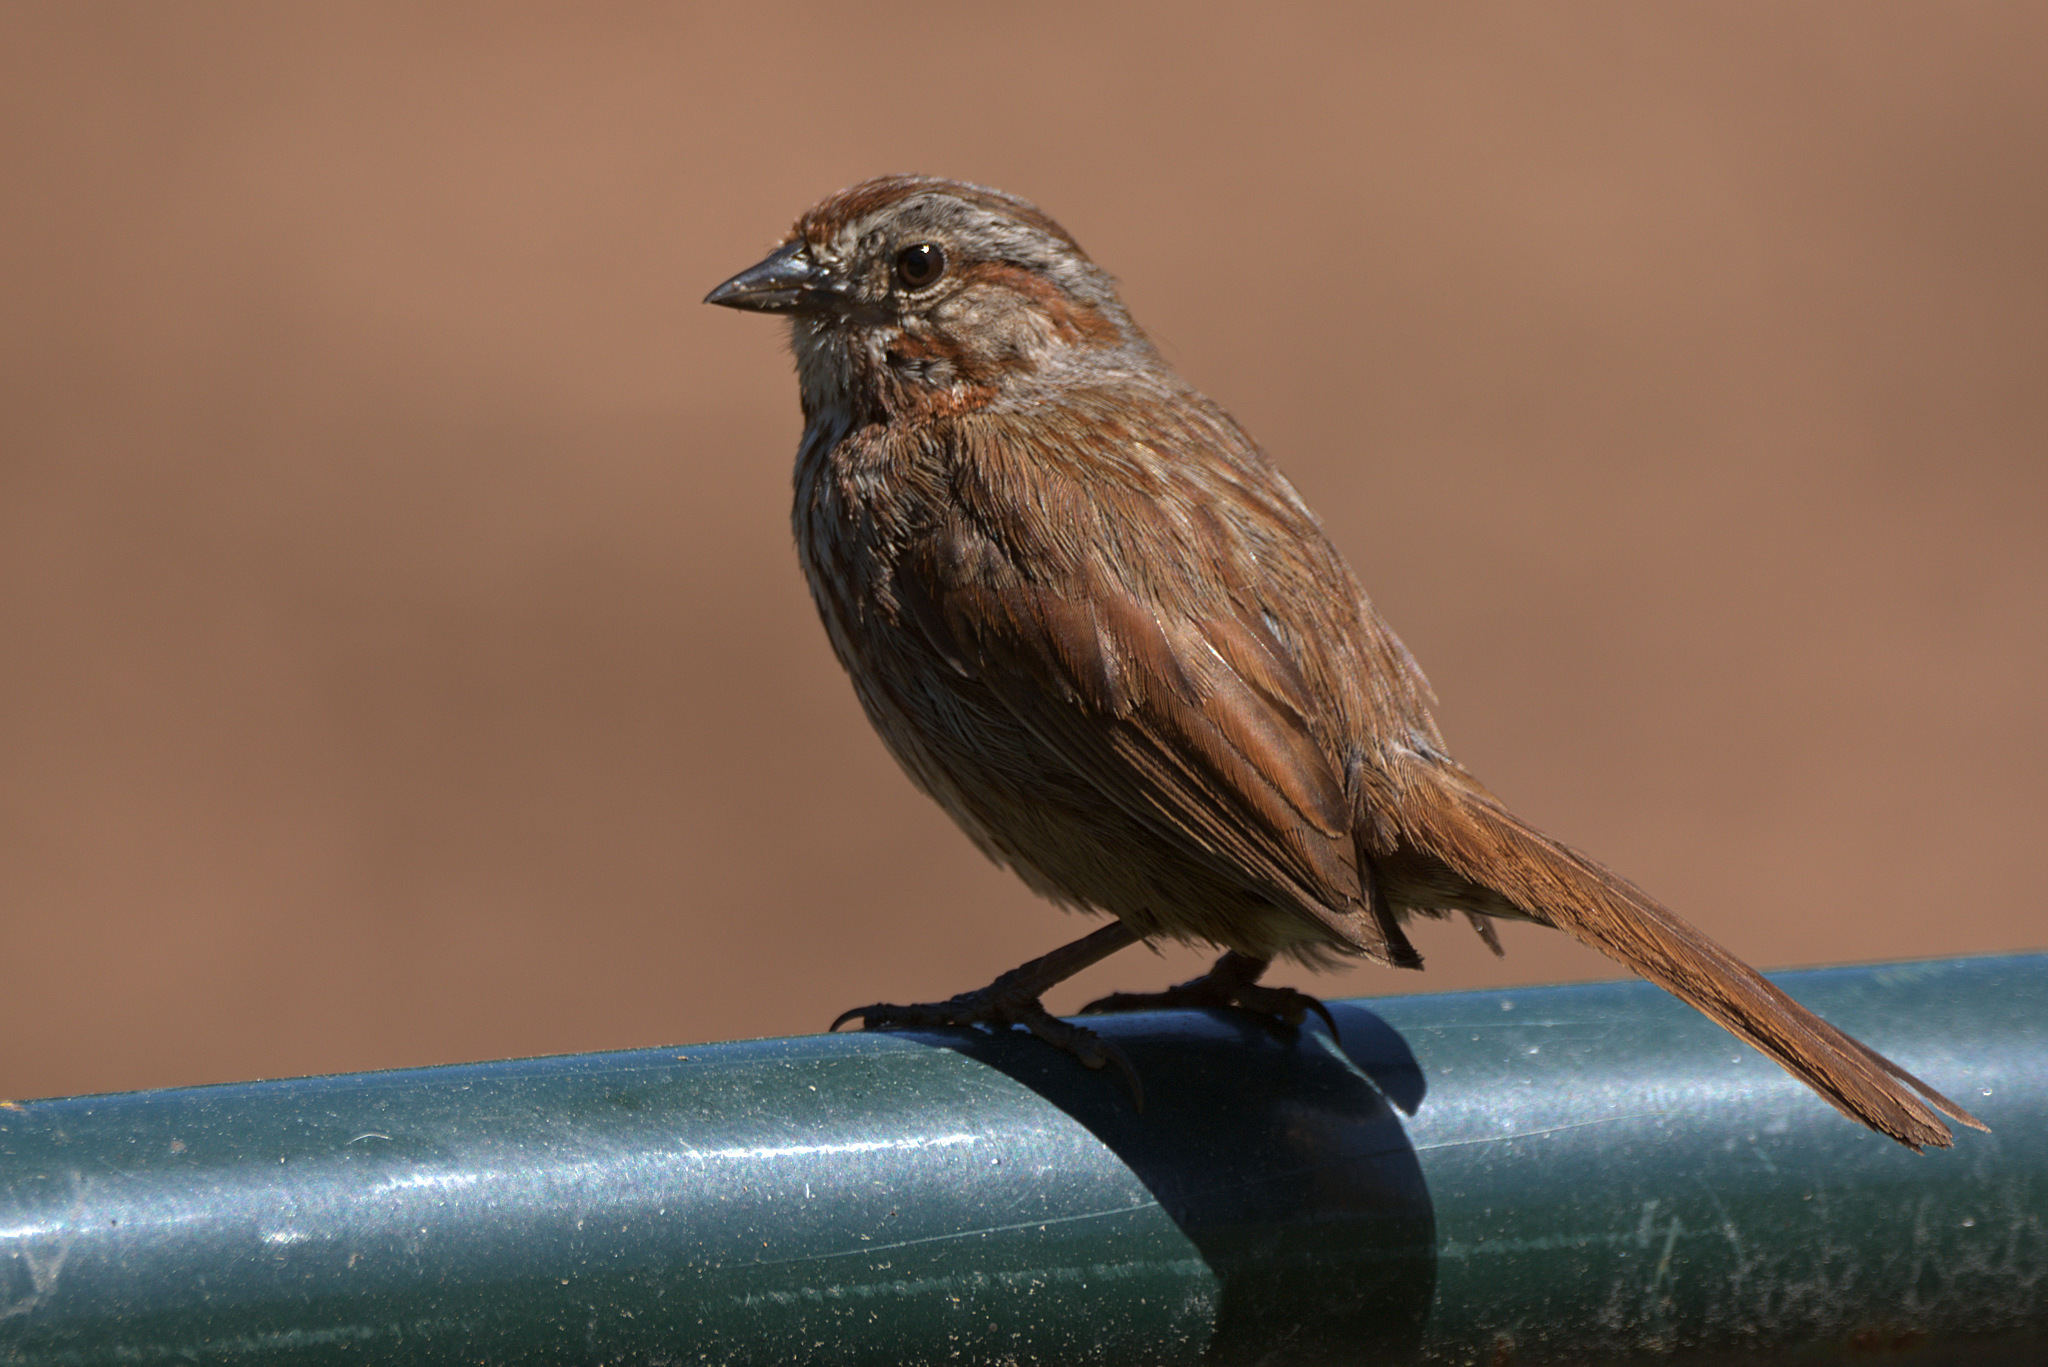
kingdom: Animalia
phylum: Chordata
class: Aves
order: Passeriformes
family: Passerellidae
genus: Melospiza
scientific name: Melospiza melodia
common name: Song sparrow
